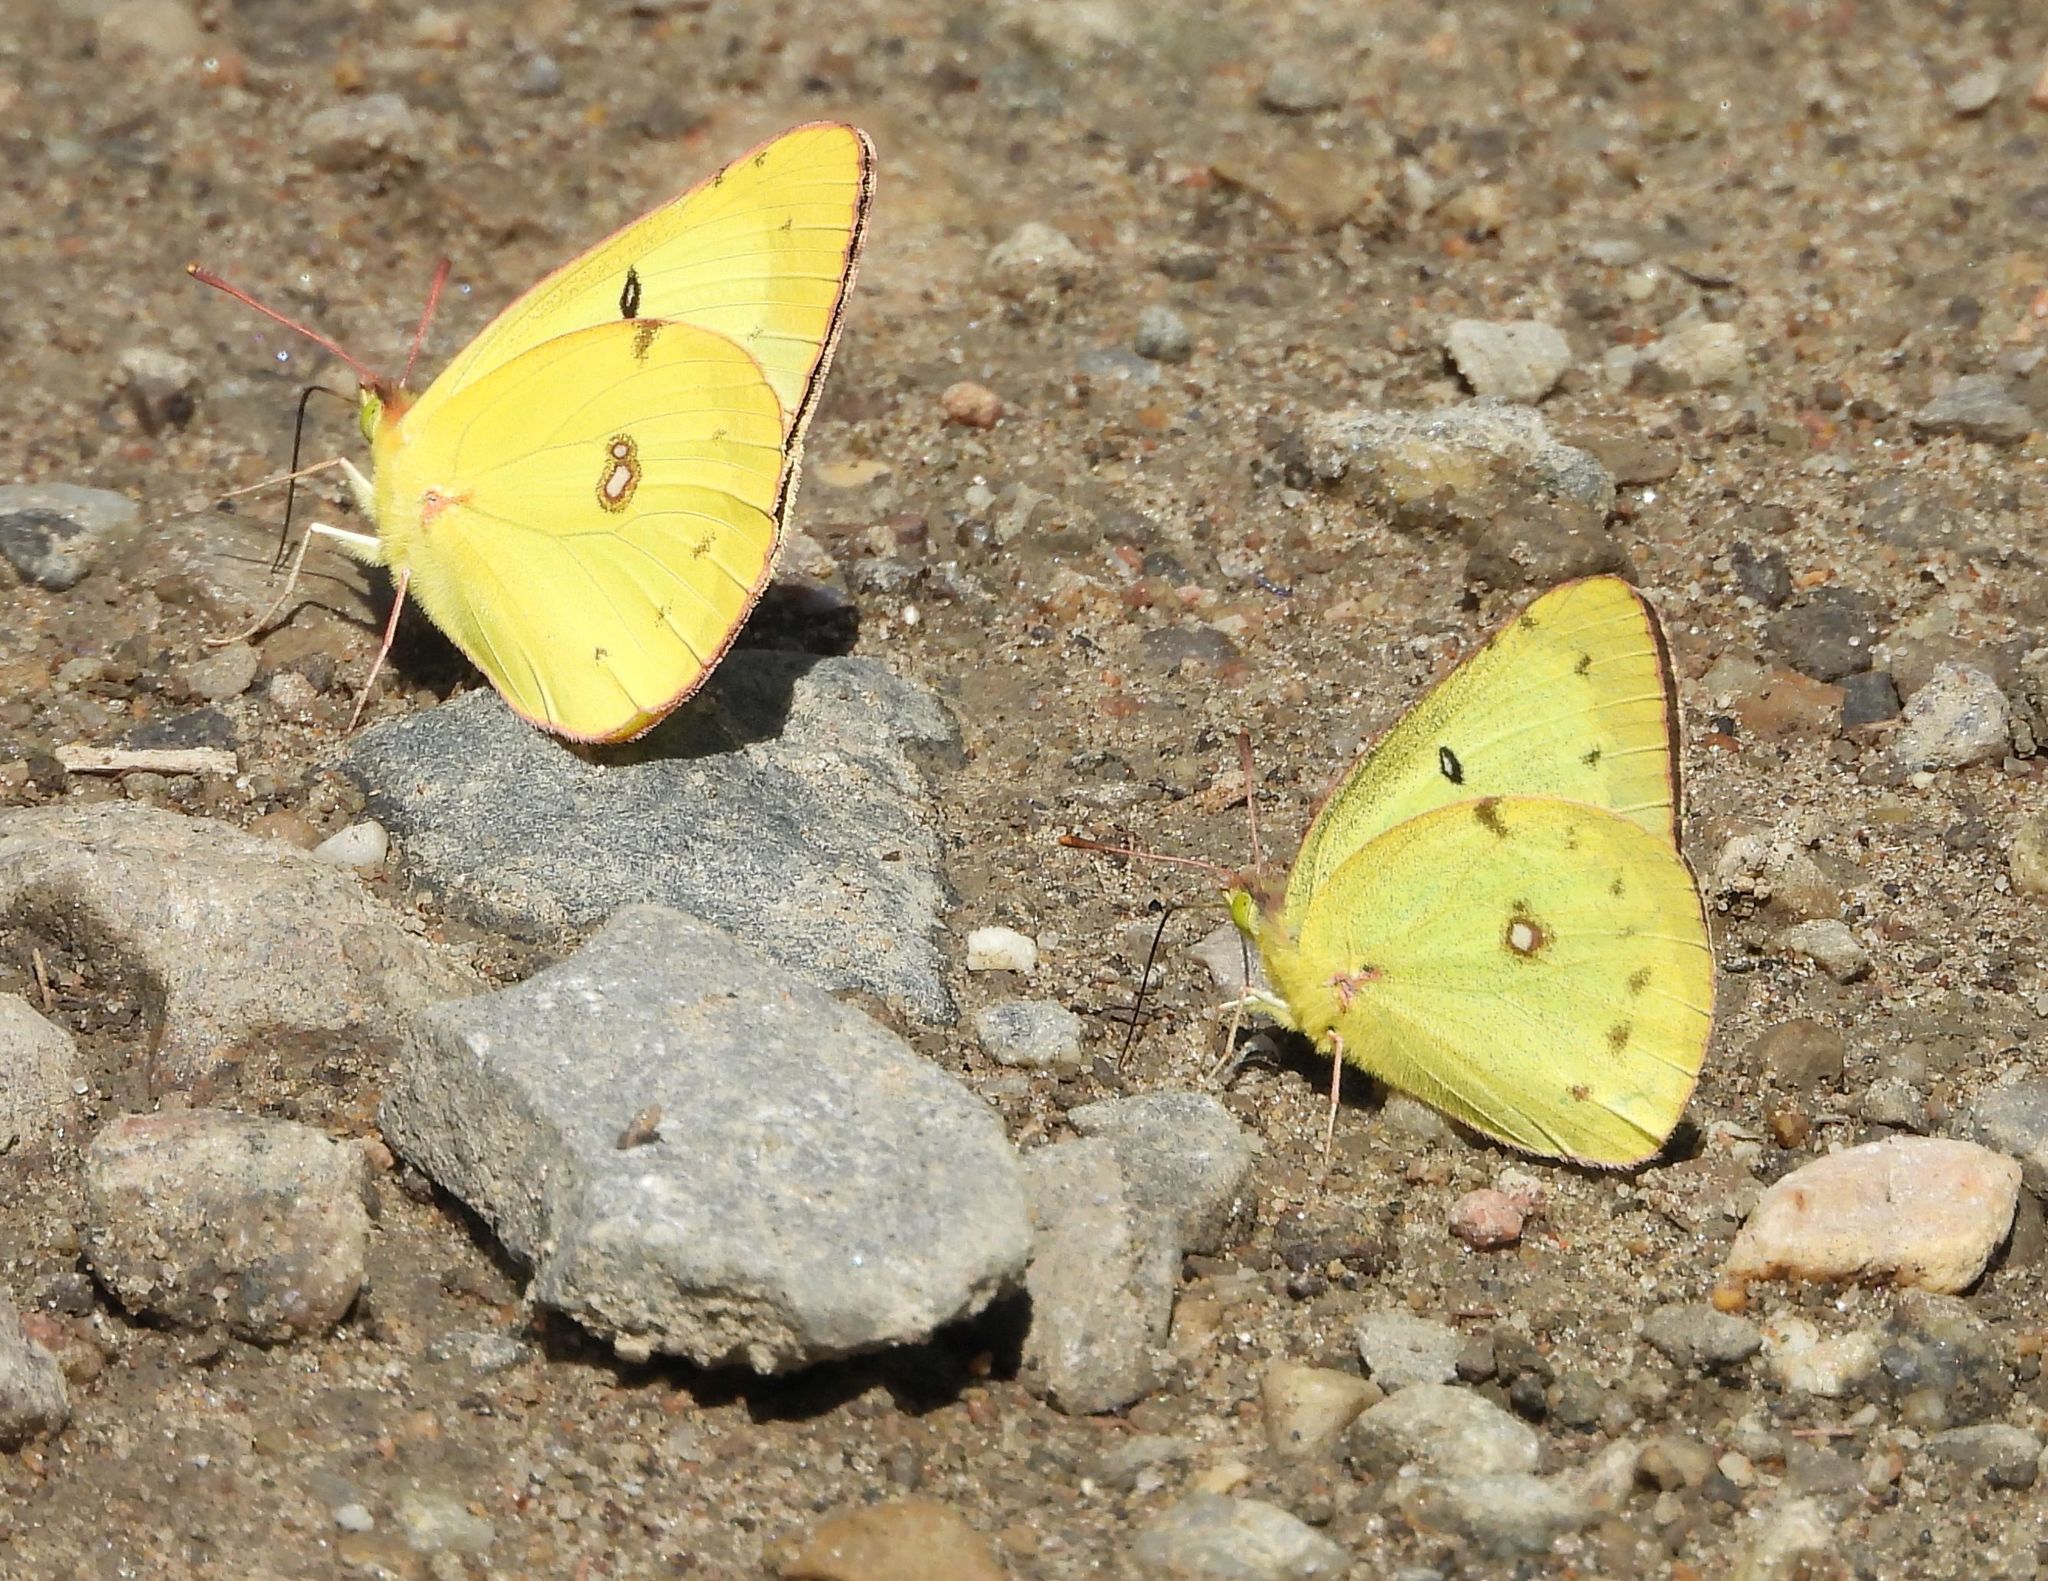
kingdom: Animalia
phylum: Arthropoda
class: Insecta
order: Lepidoptera
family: Pieridae
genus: Colias
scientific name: Colias philodice
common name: Clouded sulphur
